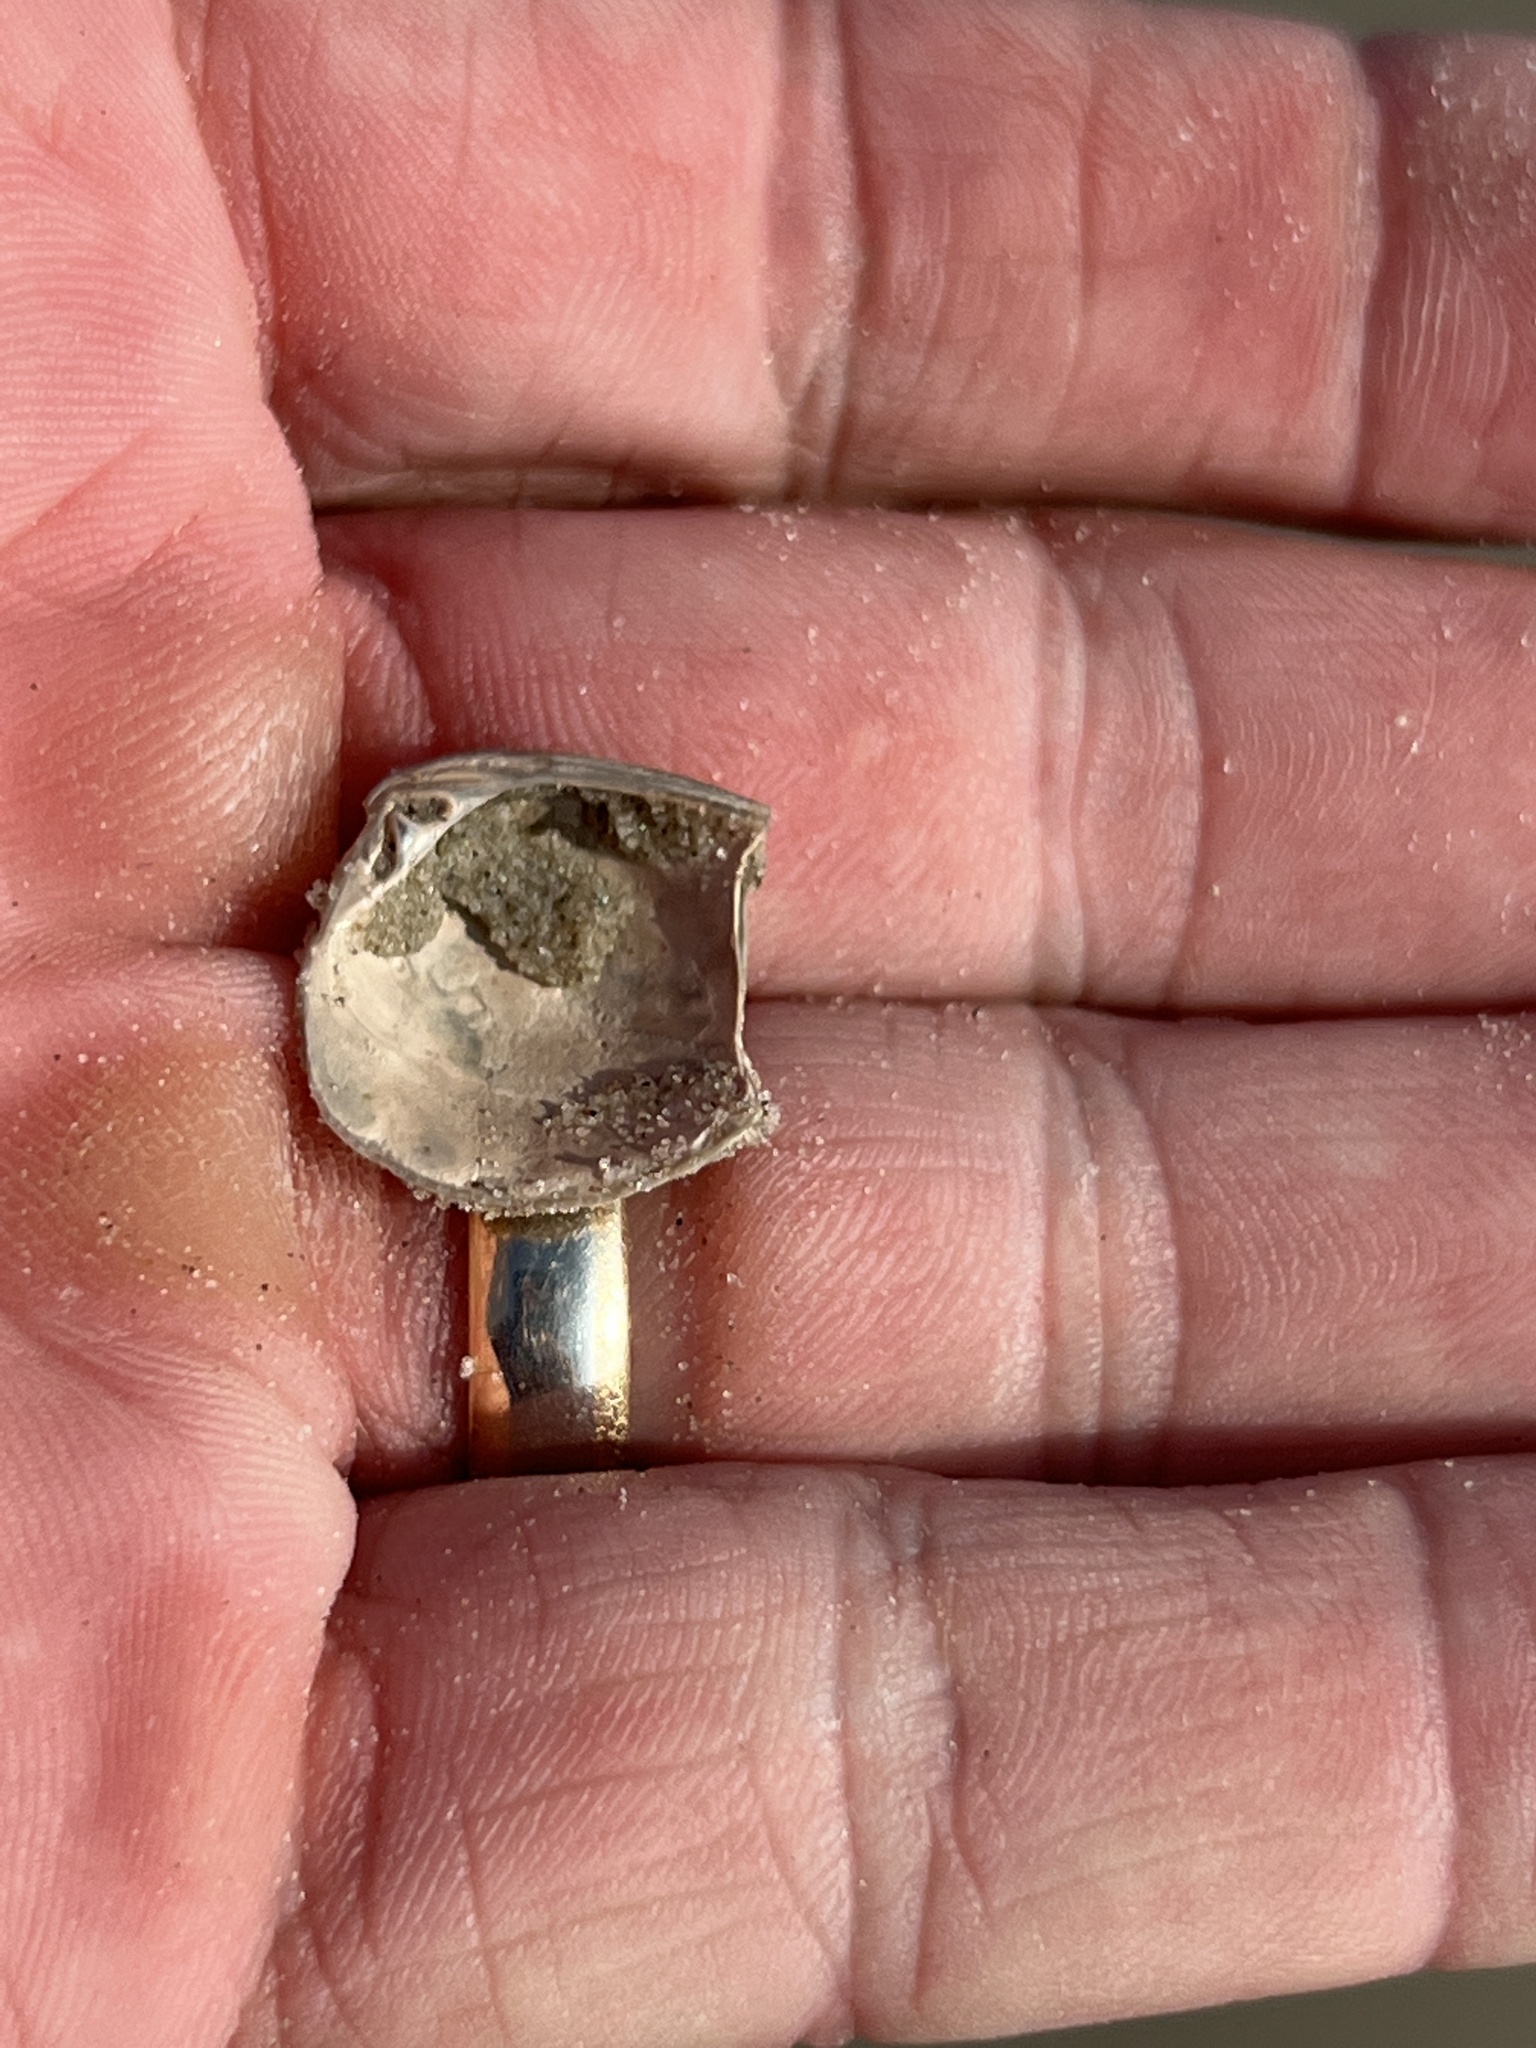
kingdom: Animalia
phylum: Mollusca
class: Bivalvia
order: Venerida
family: Veneridae
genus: Chione
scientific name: Chione elevata
